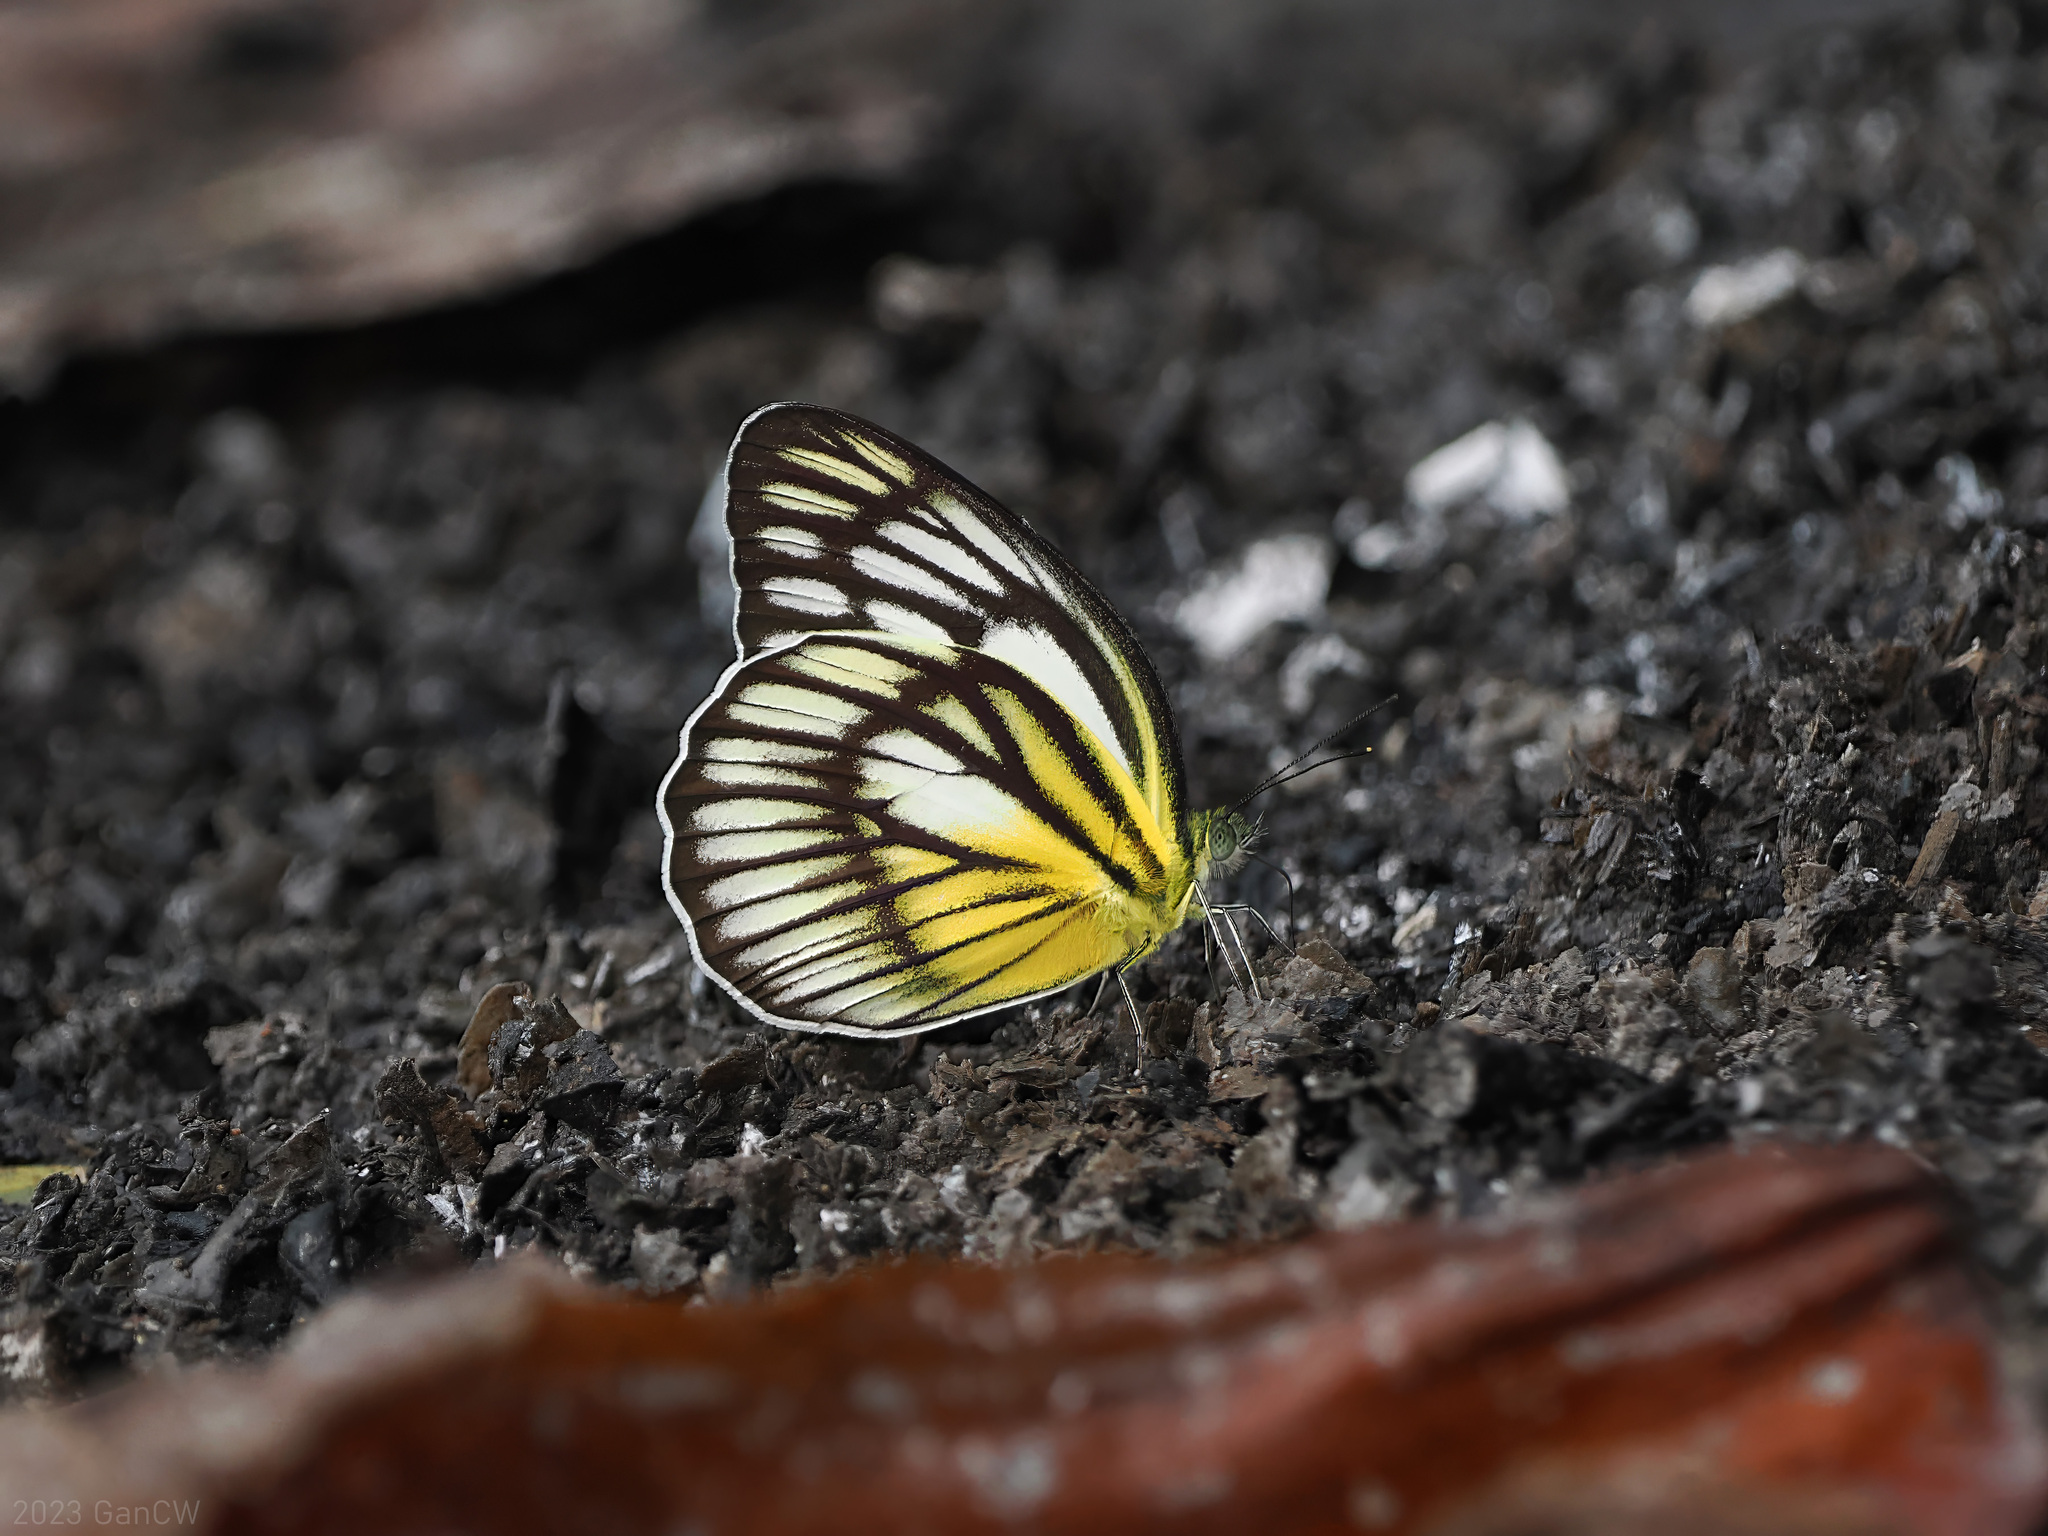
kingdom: Animalia
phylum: Arthropoda
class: Insecta
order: Lepidoptera
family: Pieridae
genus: Cepora
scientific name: Cepora celebensis
